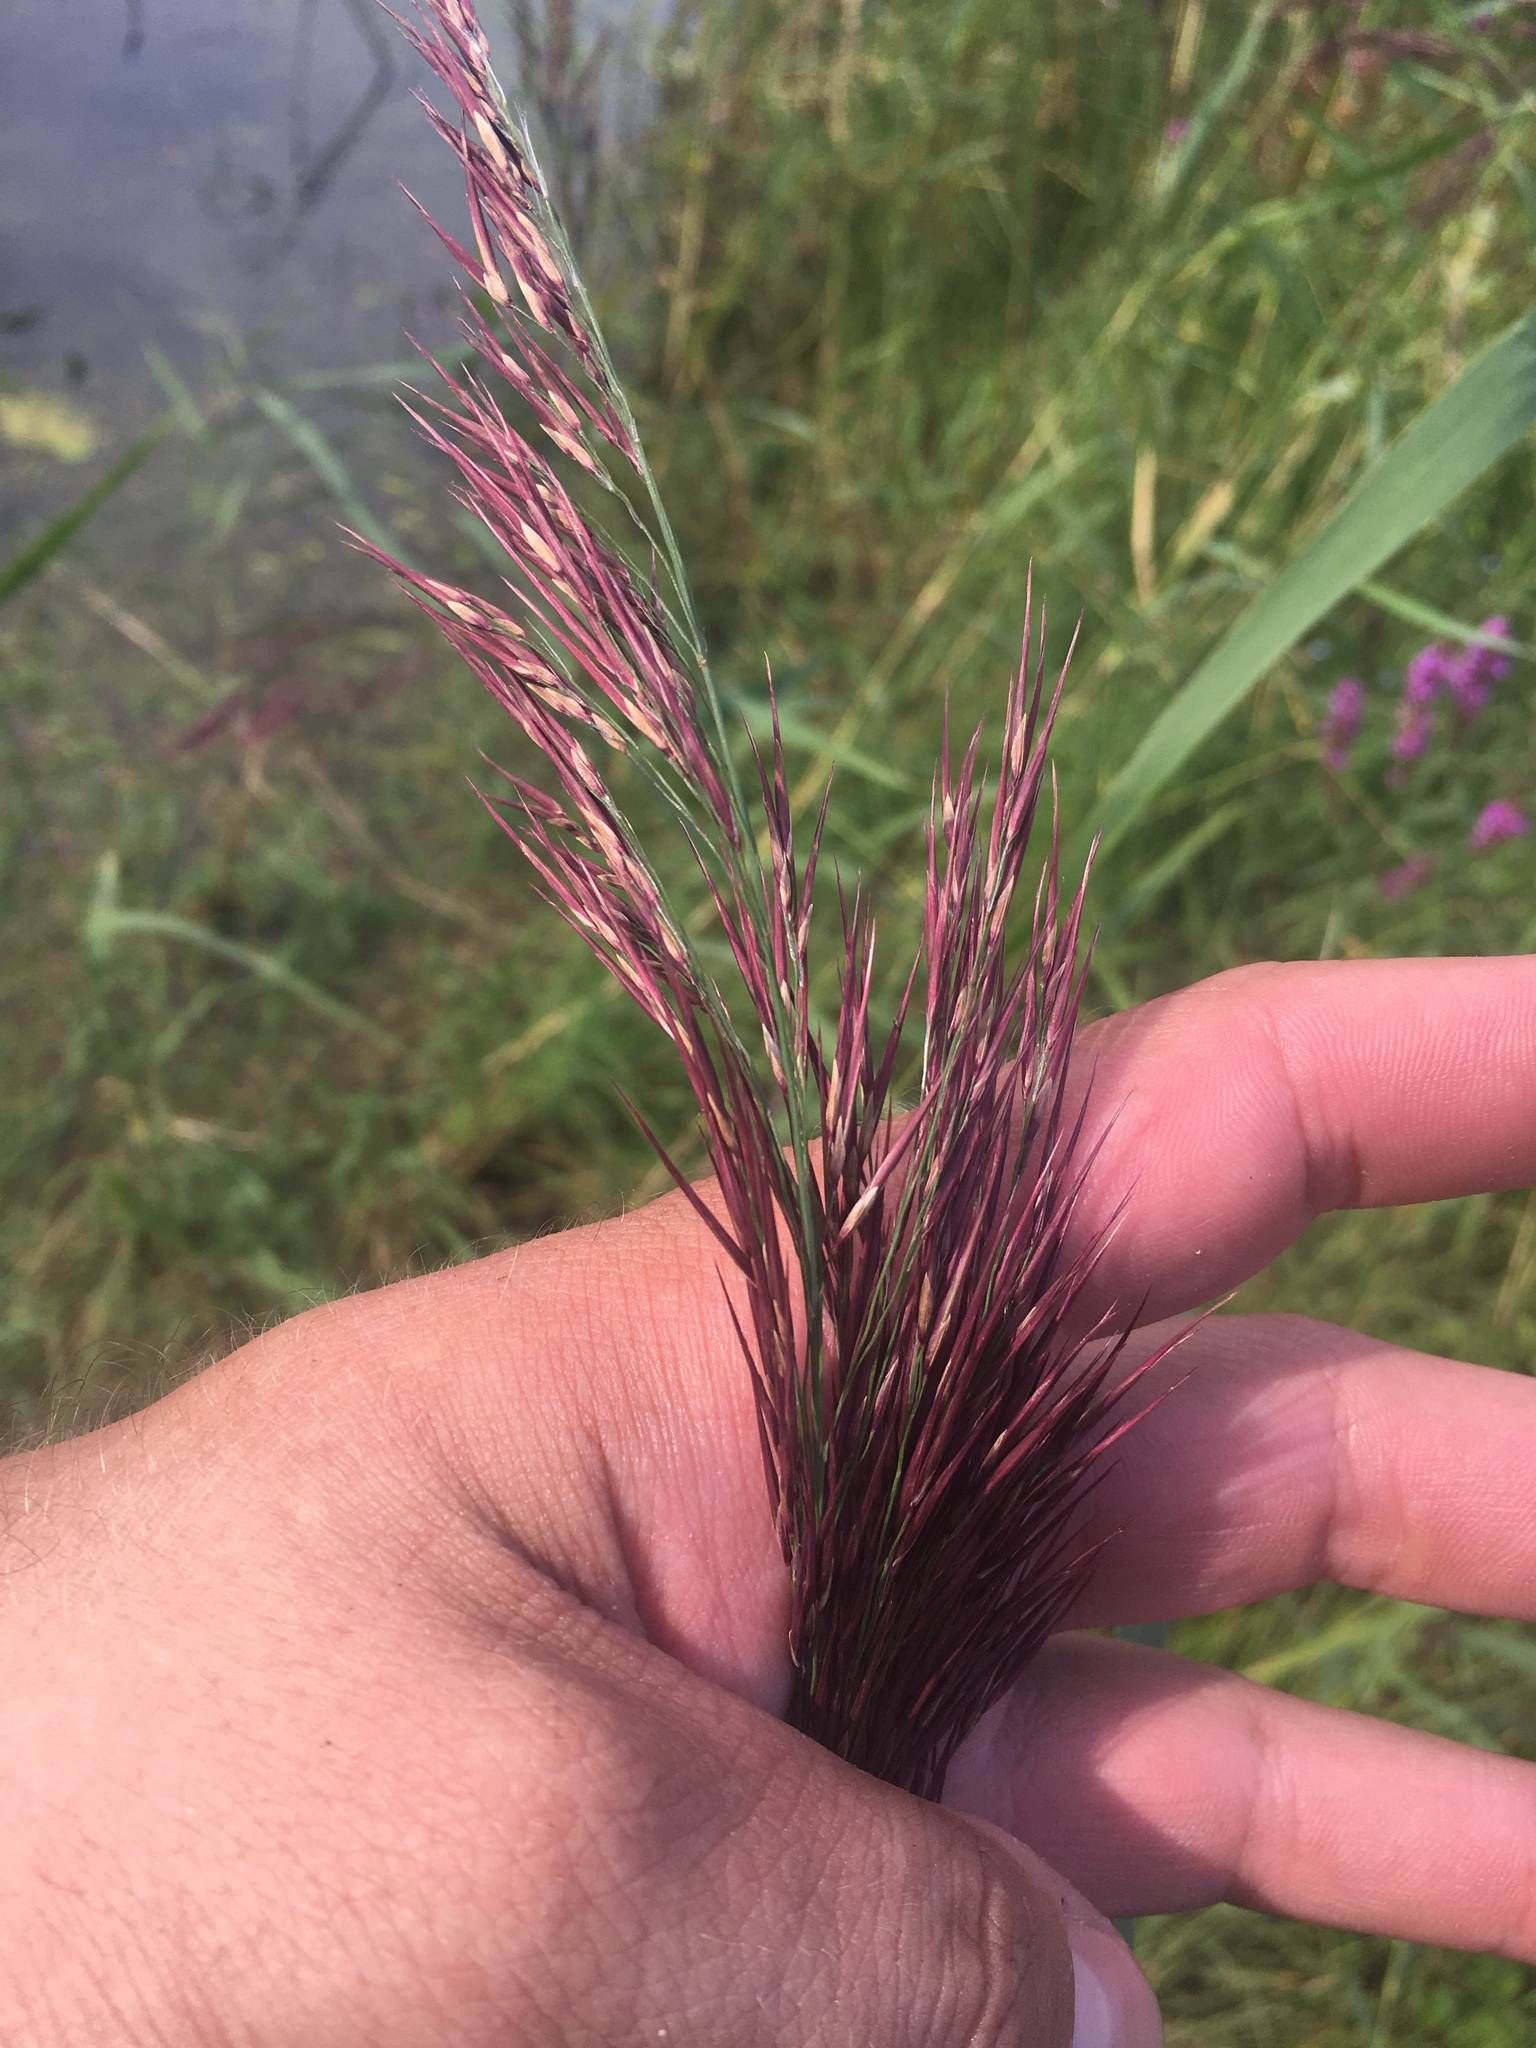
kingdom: Plantae
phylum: Tracheophyta
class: Liliopsida
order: Poales
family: Poaceae
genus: Phragmites
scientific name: Phragmites australis
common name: Common reed
